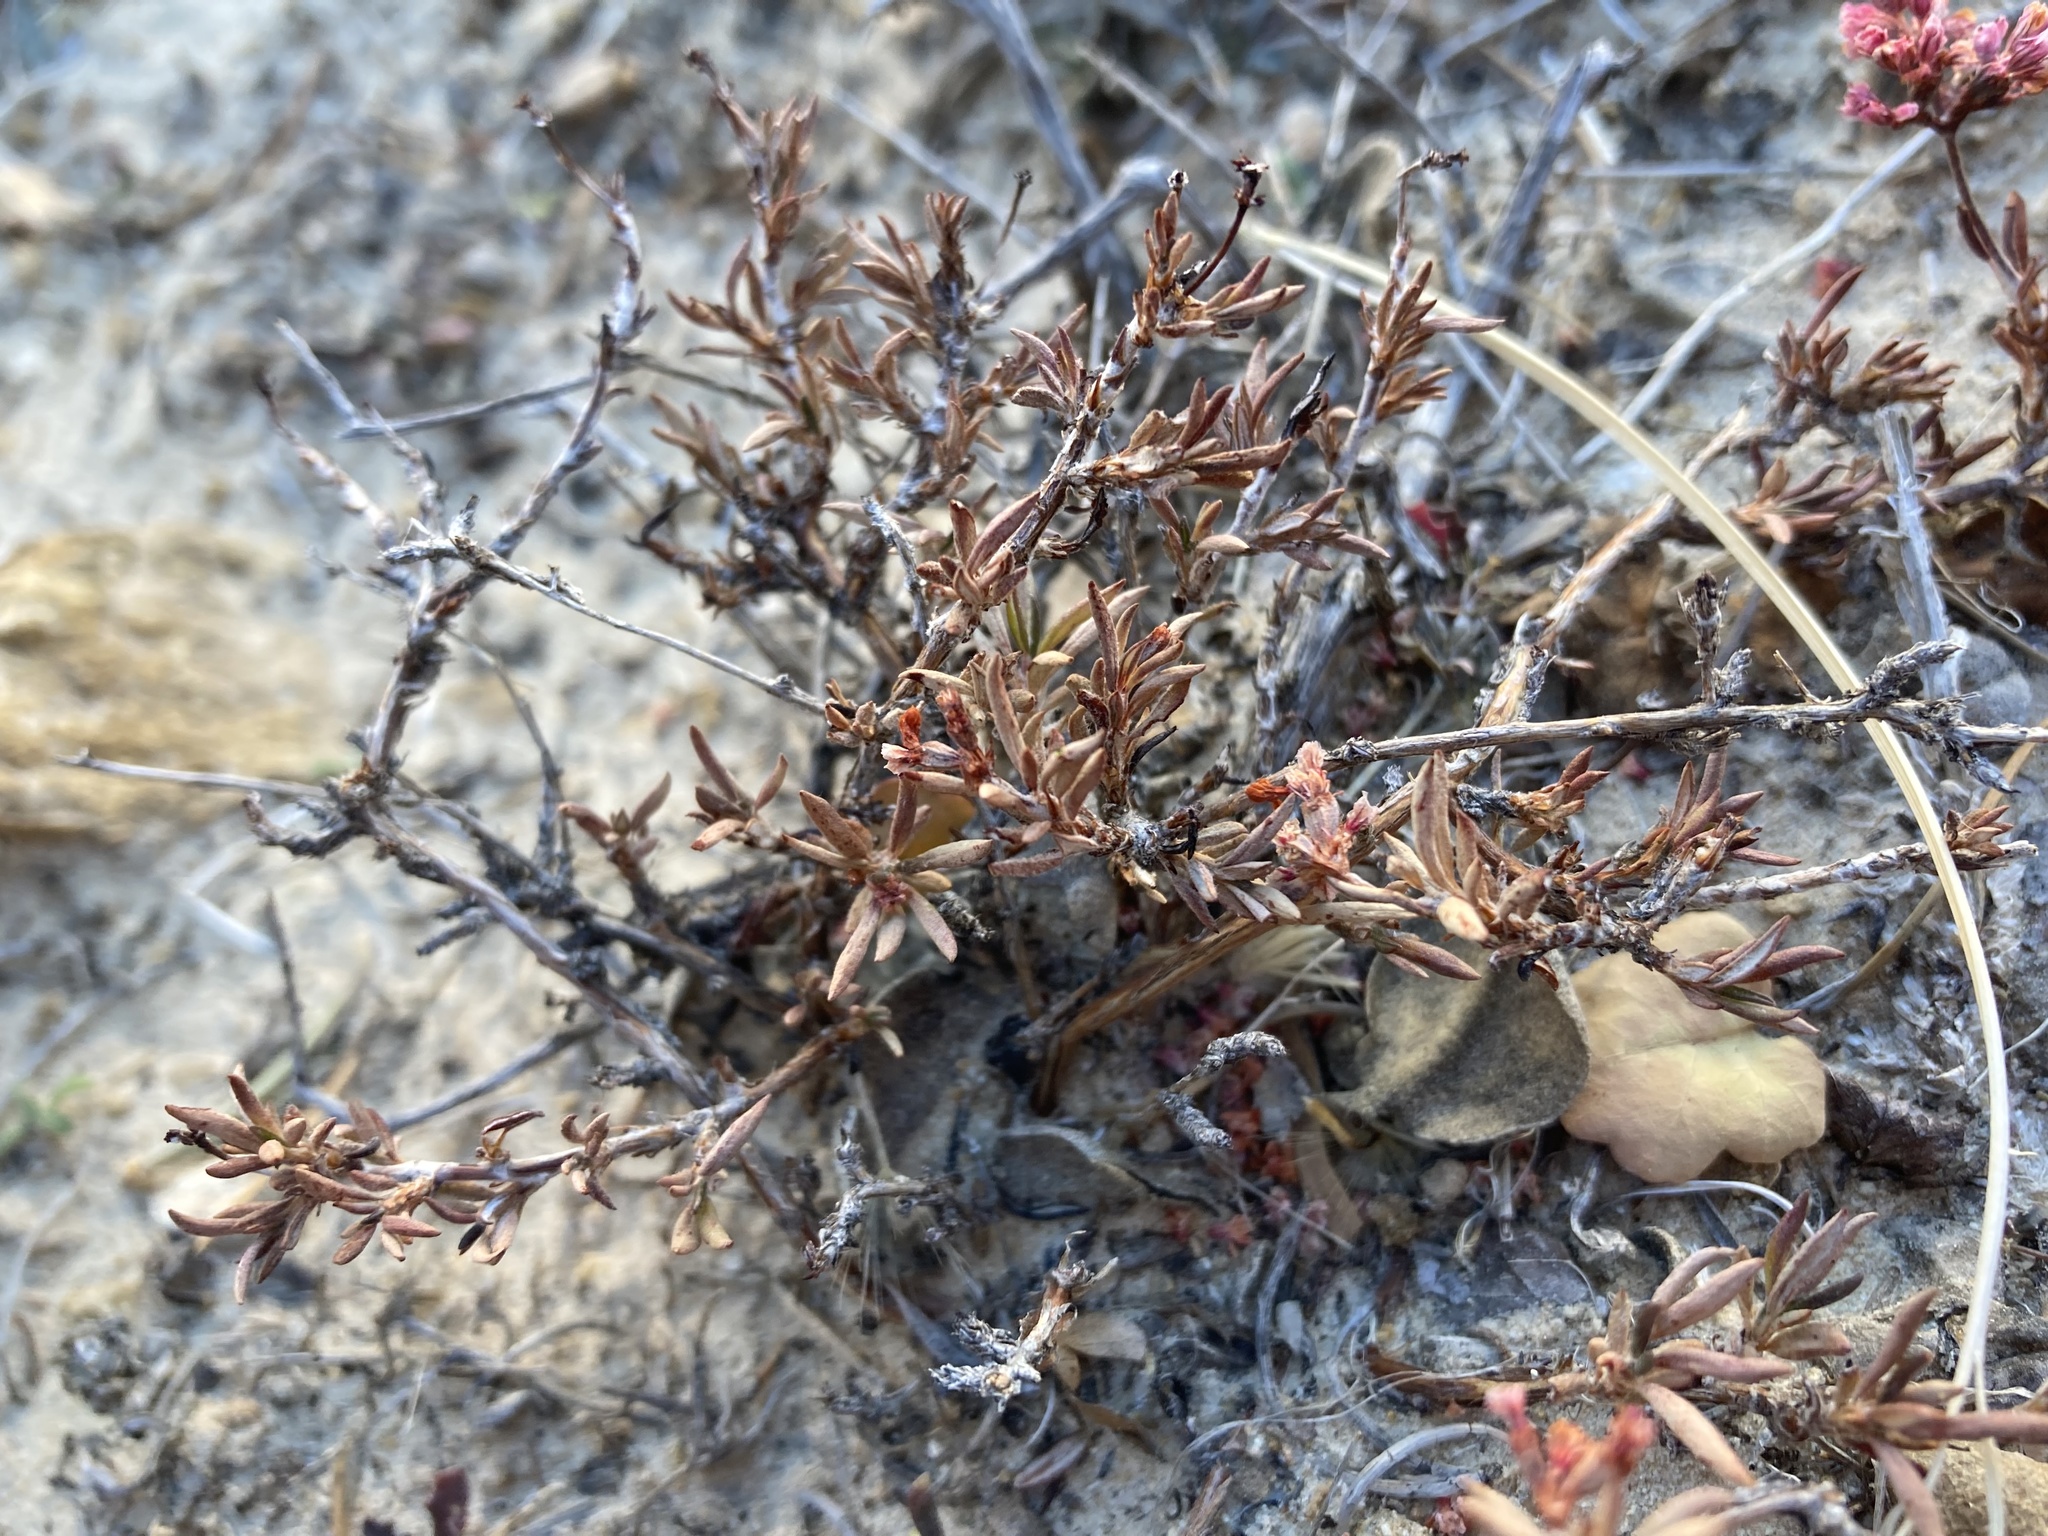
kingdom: Plantae
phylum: Tracheophyta
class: Magnoliopsida
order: Caryophyllales
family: Polygonaceae
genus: Eriogonum
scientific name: Eriogonum microtheca
